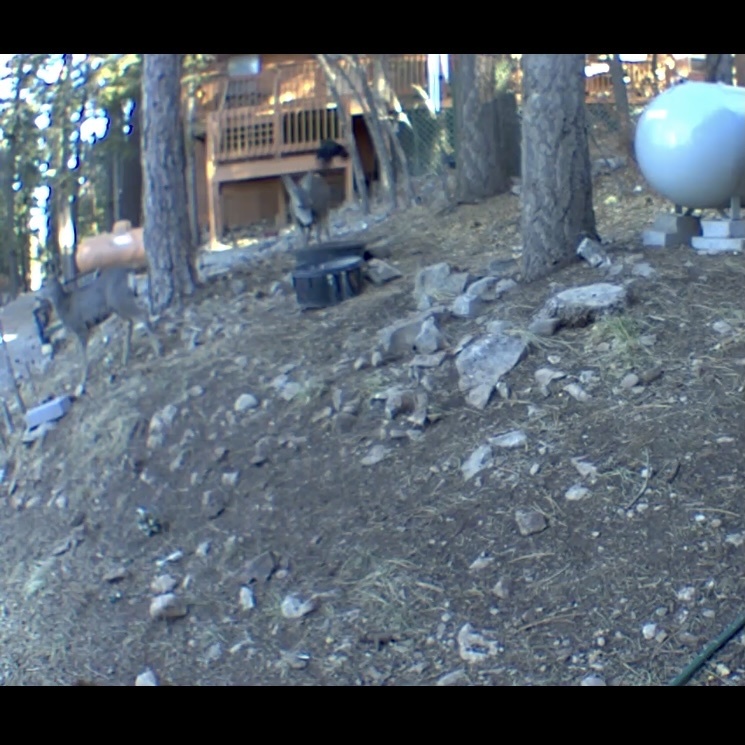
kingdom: Animalia
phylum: Chordata
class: Mammalia
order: Artiodactyla
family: Cervidae
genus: Odocoileus
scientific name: Odocoileus hemionus
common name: Mule deer
